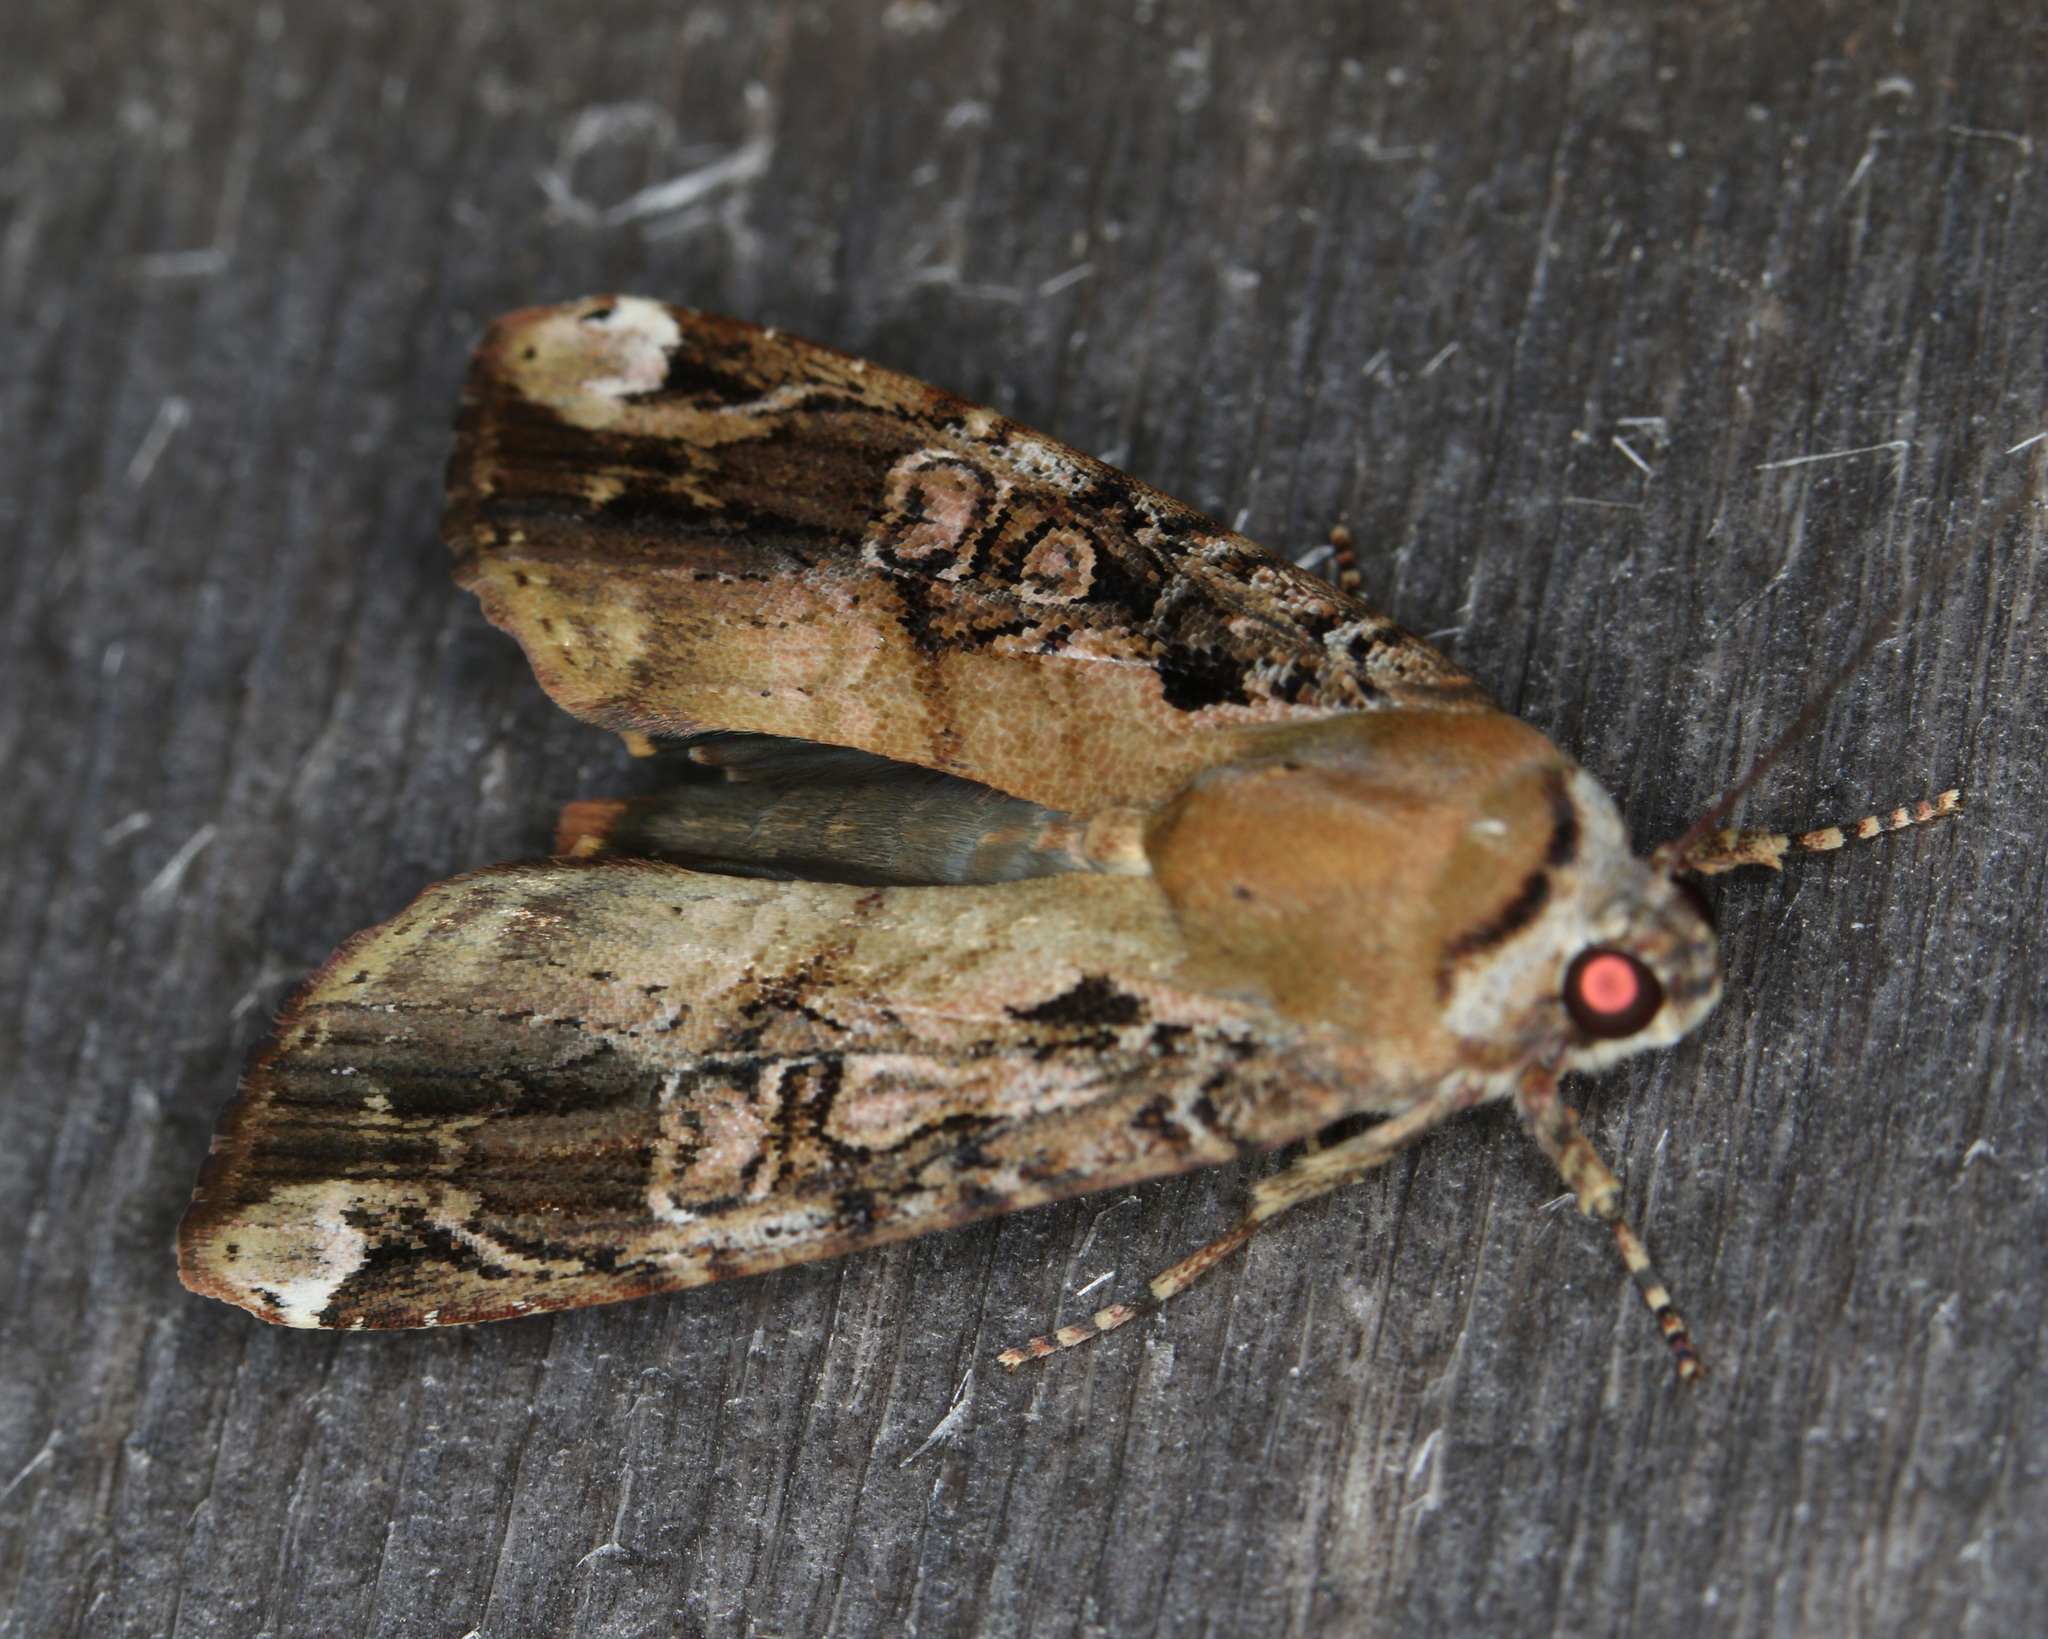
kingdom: Animalia
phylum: Arthropoda
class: Insecta
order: Lepidoptera
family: Noctuidae
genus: Magusa
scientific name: Magusa divaricata
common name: Orb narrow-winged moth
